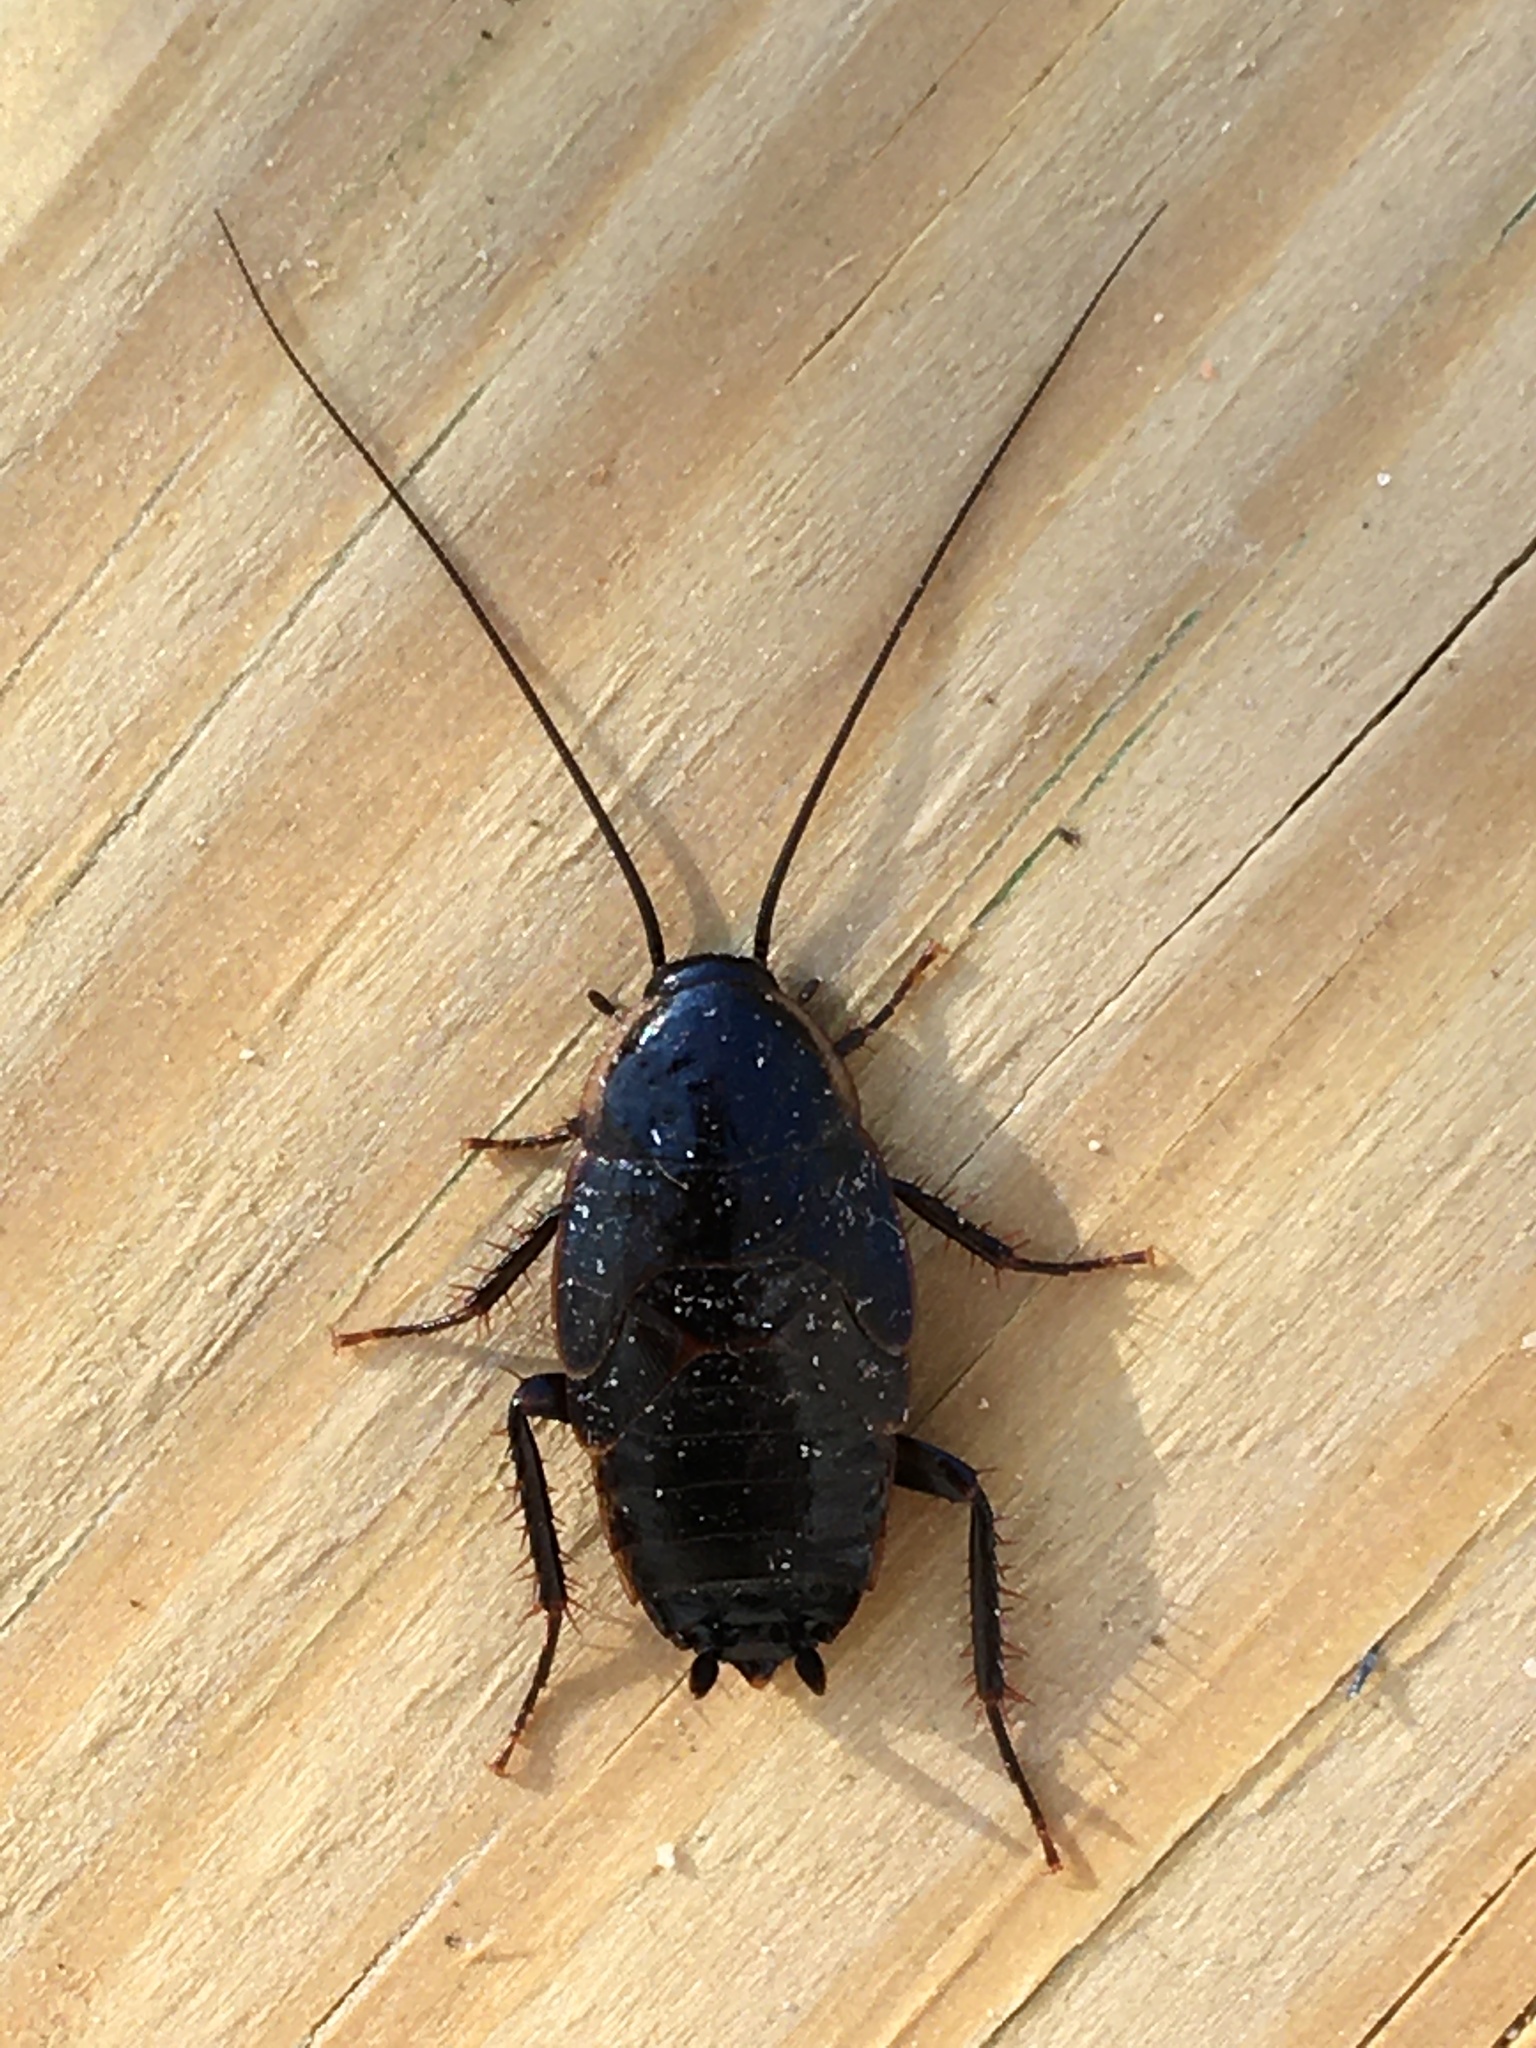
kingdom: Animalia
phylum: Arthropoda
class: Insecta
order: Blattodea
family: Blattidae
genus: Periplaneta
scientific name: Periplaneta fuliginosa
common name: Smokeybrown cockroad
